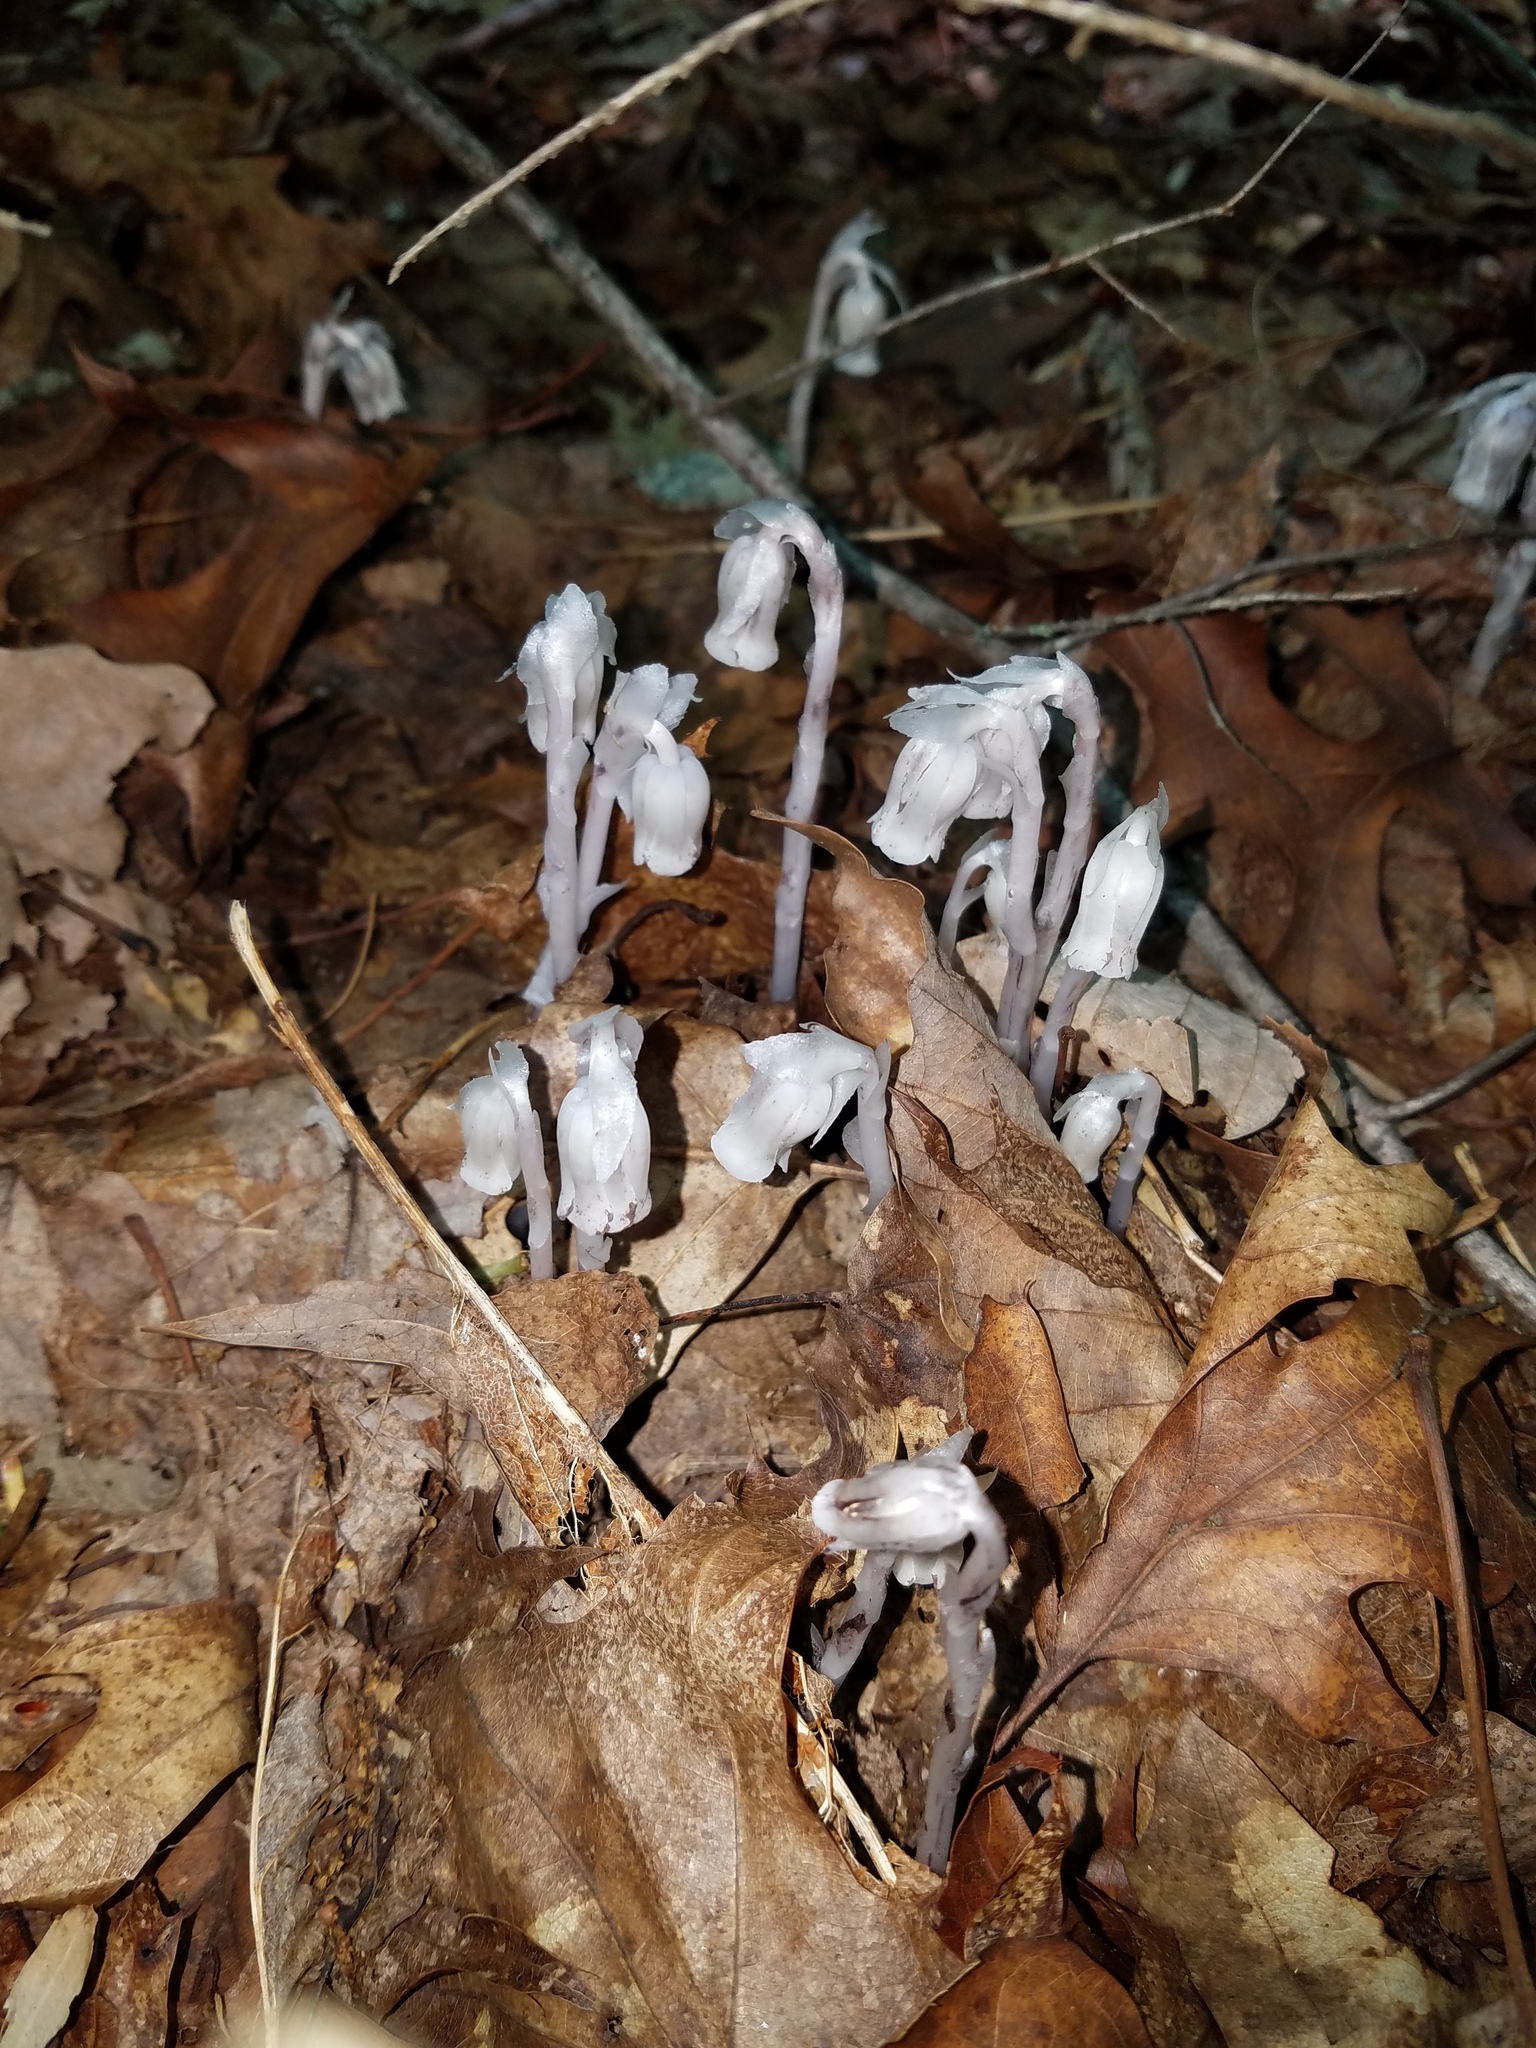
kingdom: Plantae
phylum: Tracheophyta
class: Magnoliopsida
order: Ericales
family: Ericaceae
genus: Monotropa
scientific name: Monotropa uniflora
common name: Convulsion root
